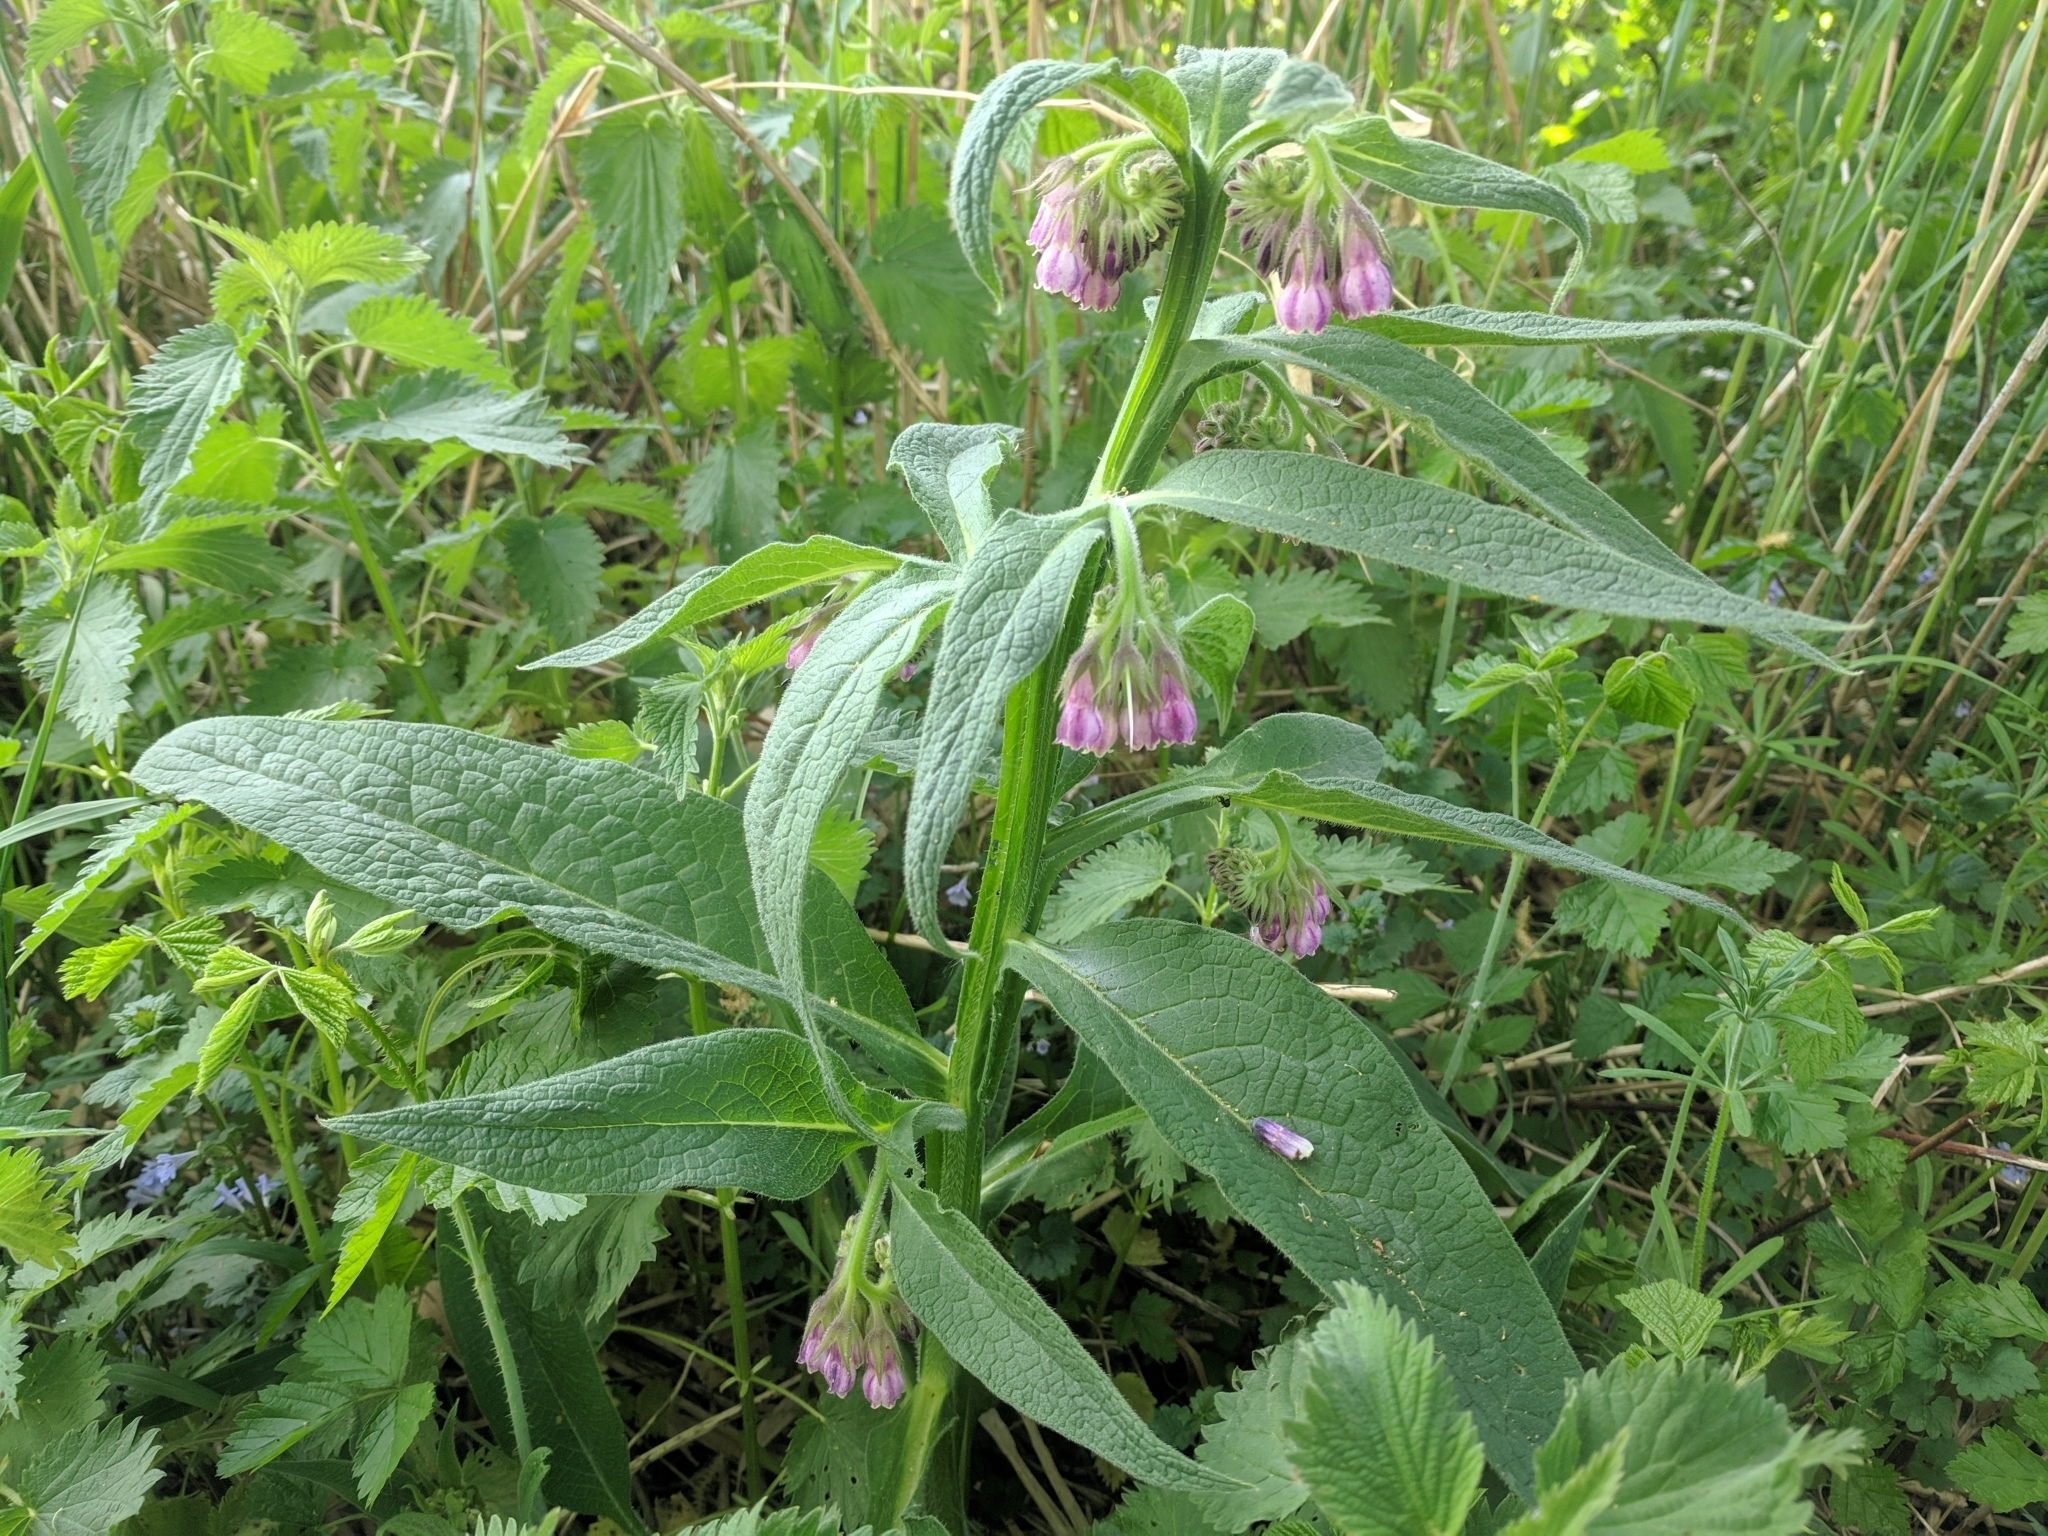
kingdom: Plantae
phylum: Tracheophyta
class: Magnoliopsida
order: Boraginales
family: Boraginaceae
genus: Symphytum
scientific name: Symphytum officinale
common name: Common comfrey
